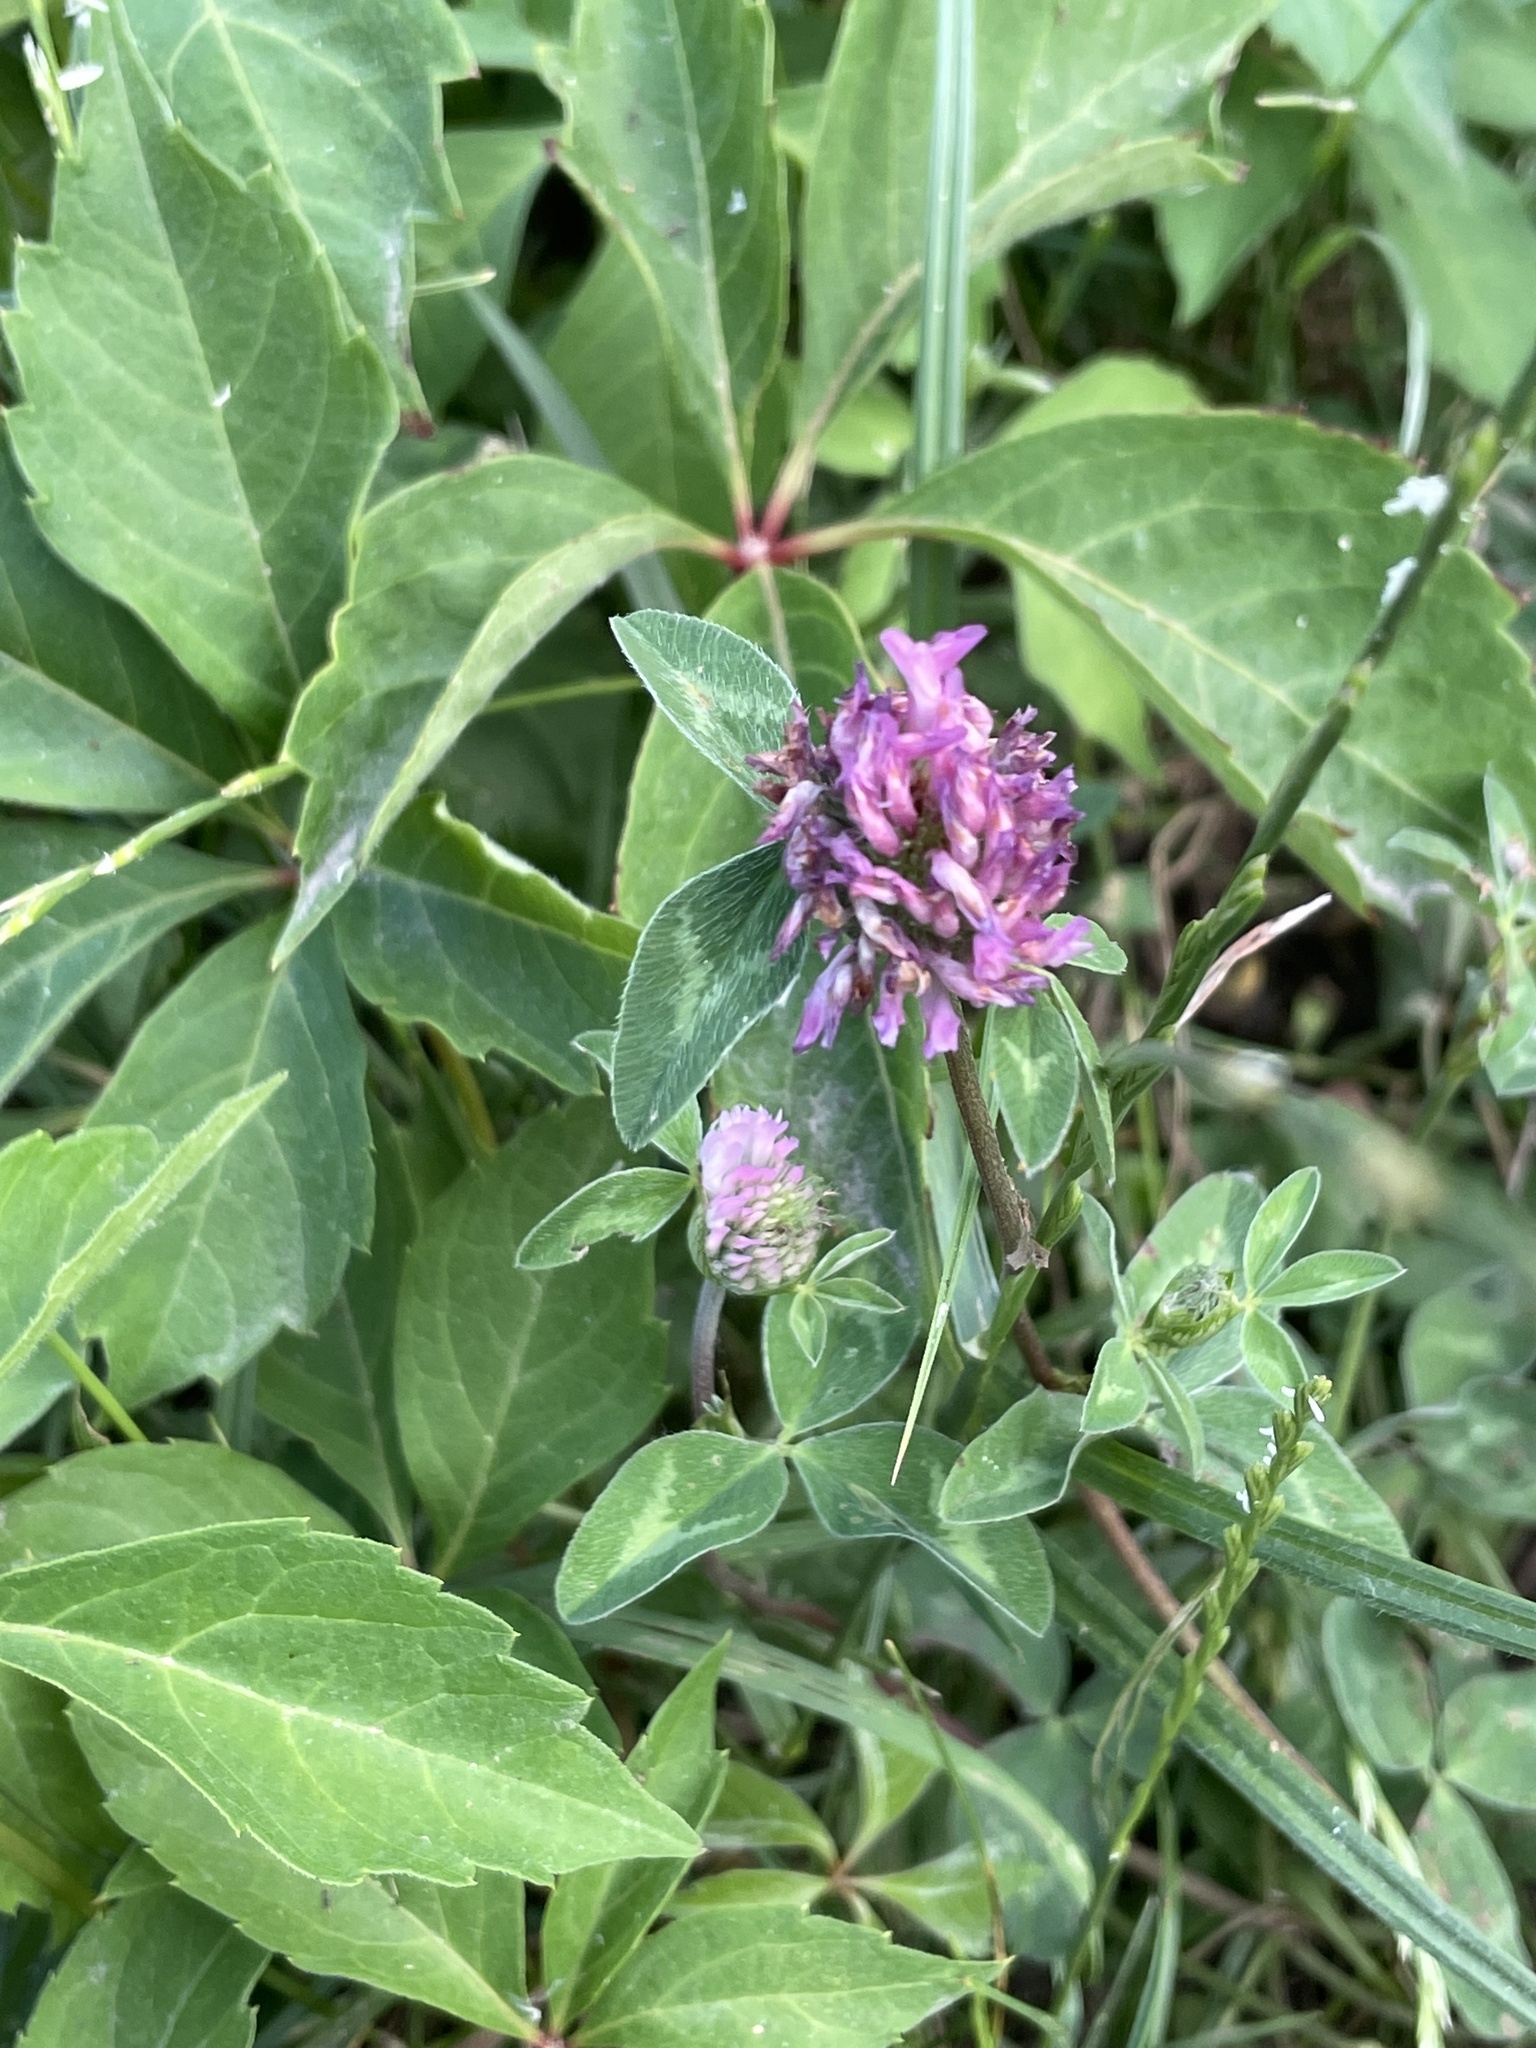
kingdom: Plantae
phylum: Tracheophyta
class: Magnoliopsida
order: Fabales
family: Fabaceae
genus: Trifolium
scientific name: Trifolium pratense
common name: Red clover
